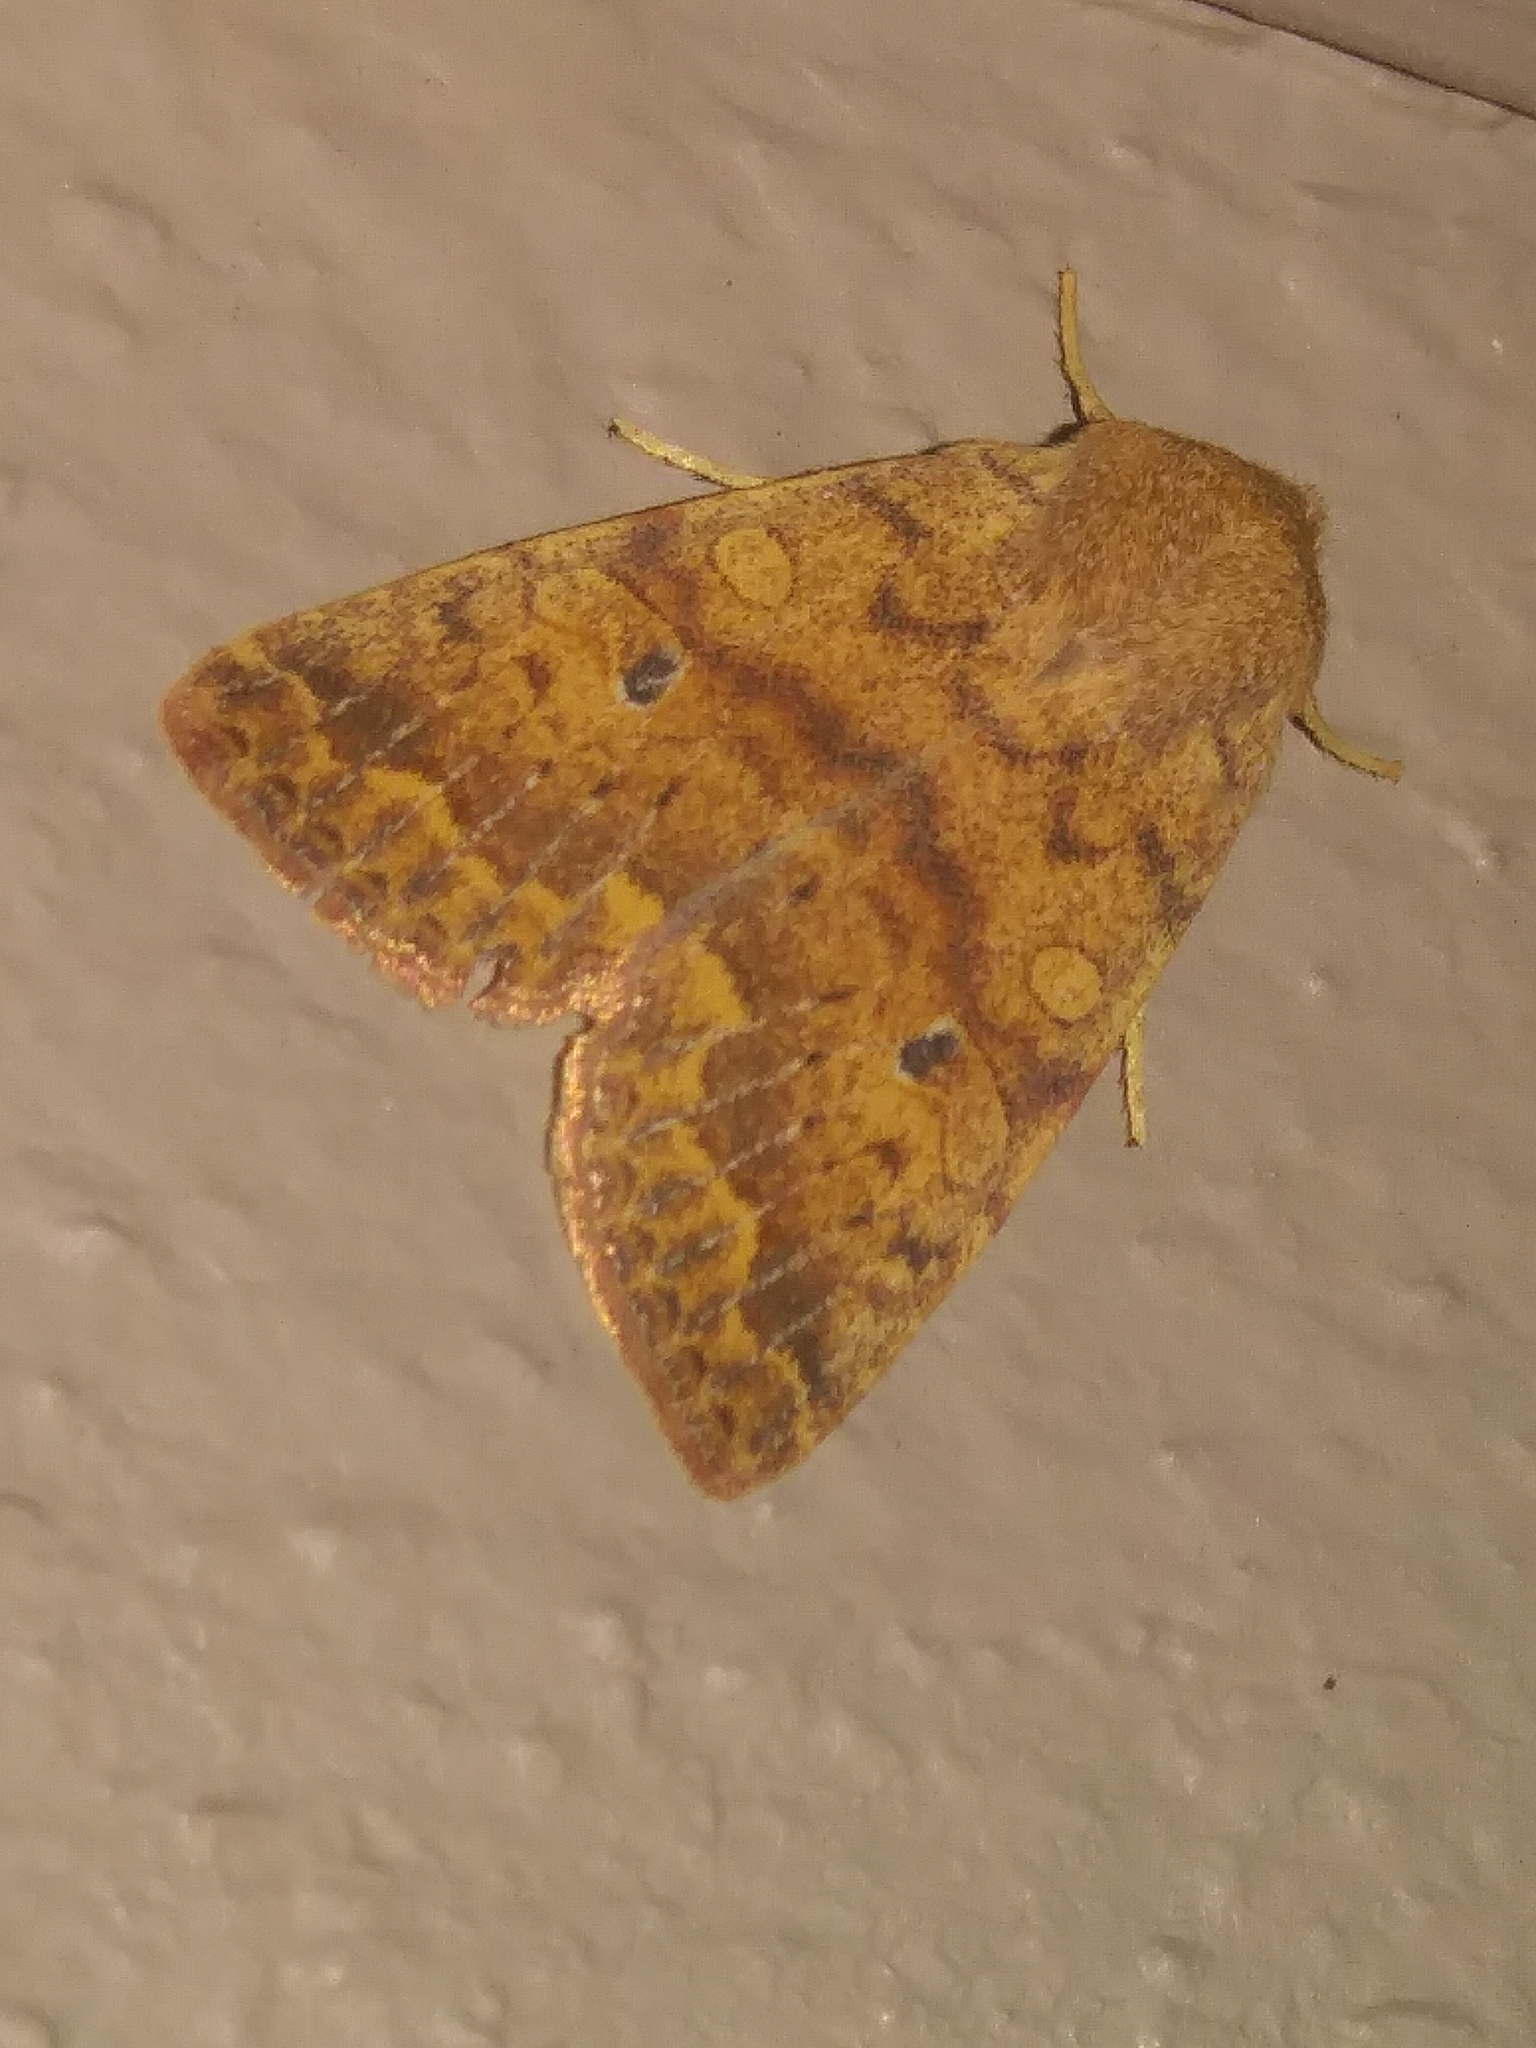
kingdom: Animalia
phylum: Arthropoda
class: Insecta
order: Lepidoptera
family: Noctuidae
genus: Agrochola
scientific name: Agrochola bicolorago
